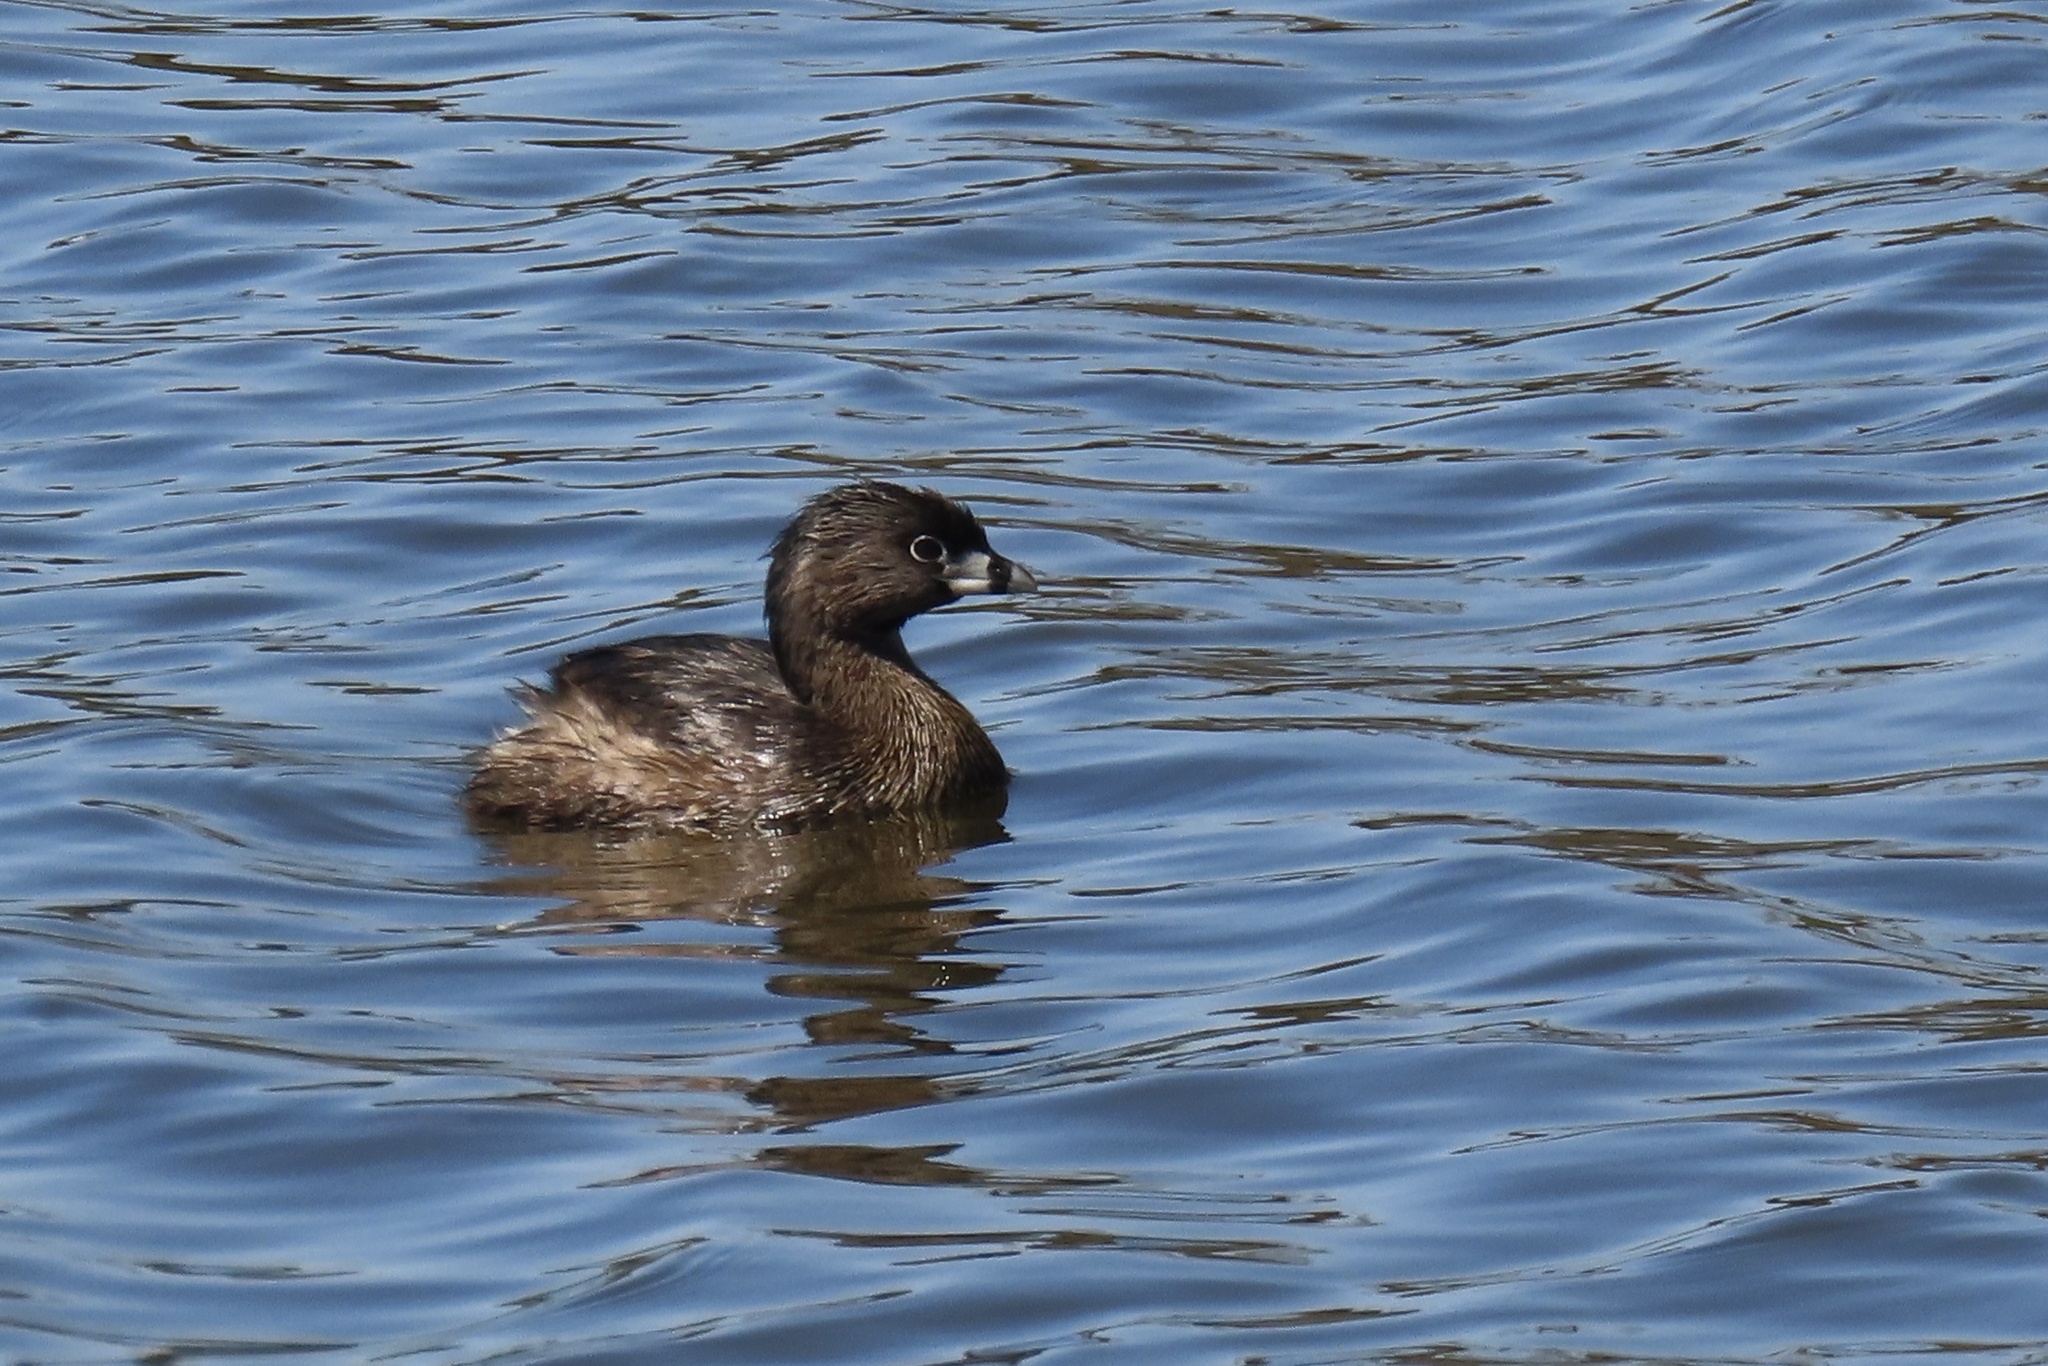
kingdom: Animalia
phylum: Chordata
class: Aves
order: Podicipediformes
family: Podicipedidae
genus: Podilymbus
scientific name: Podilymbus podiceps
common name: Pied-billed grebe
